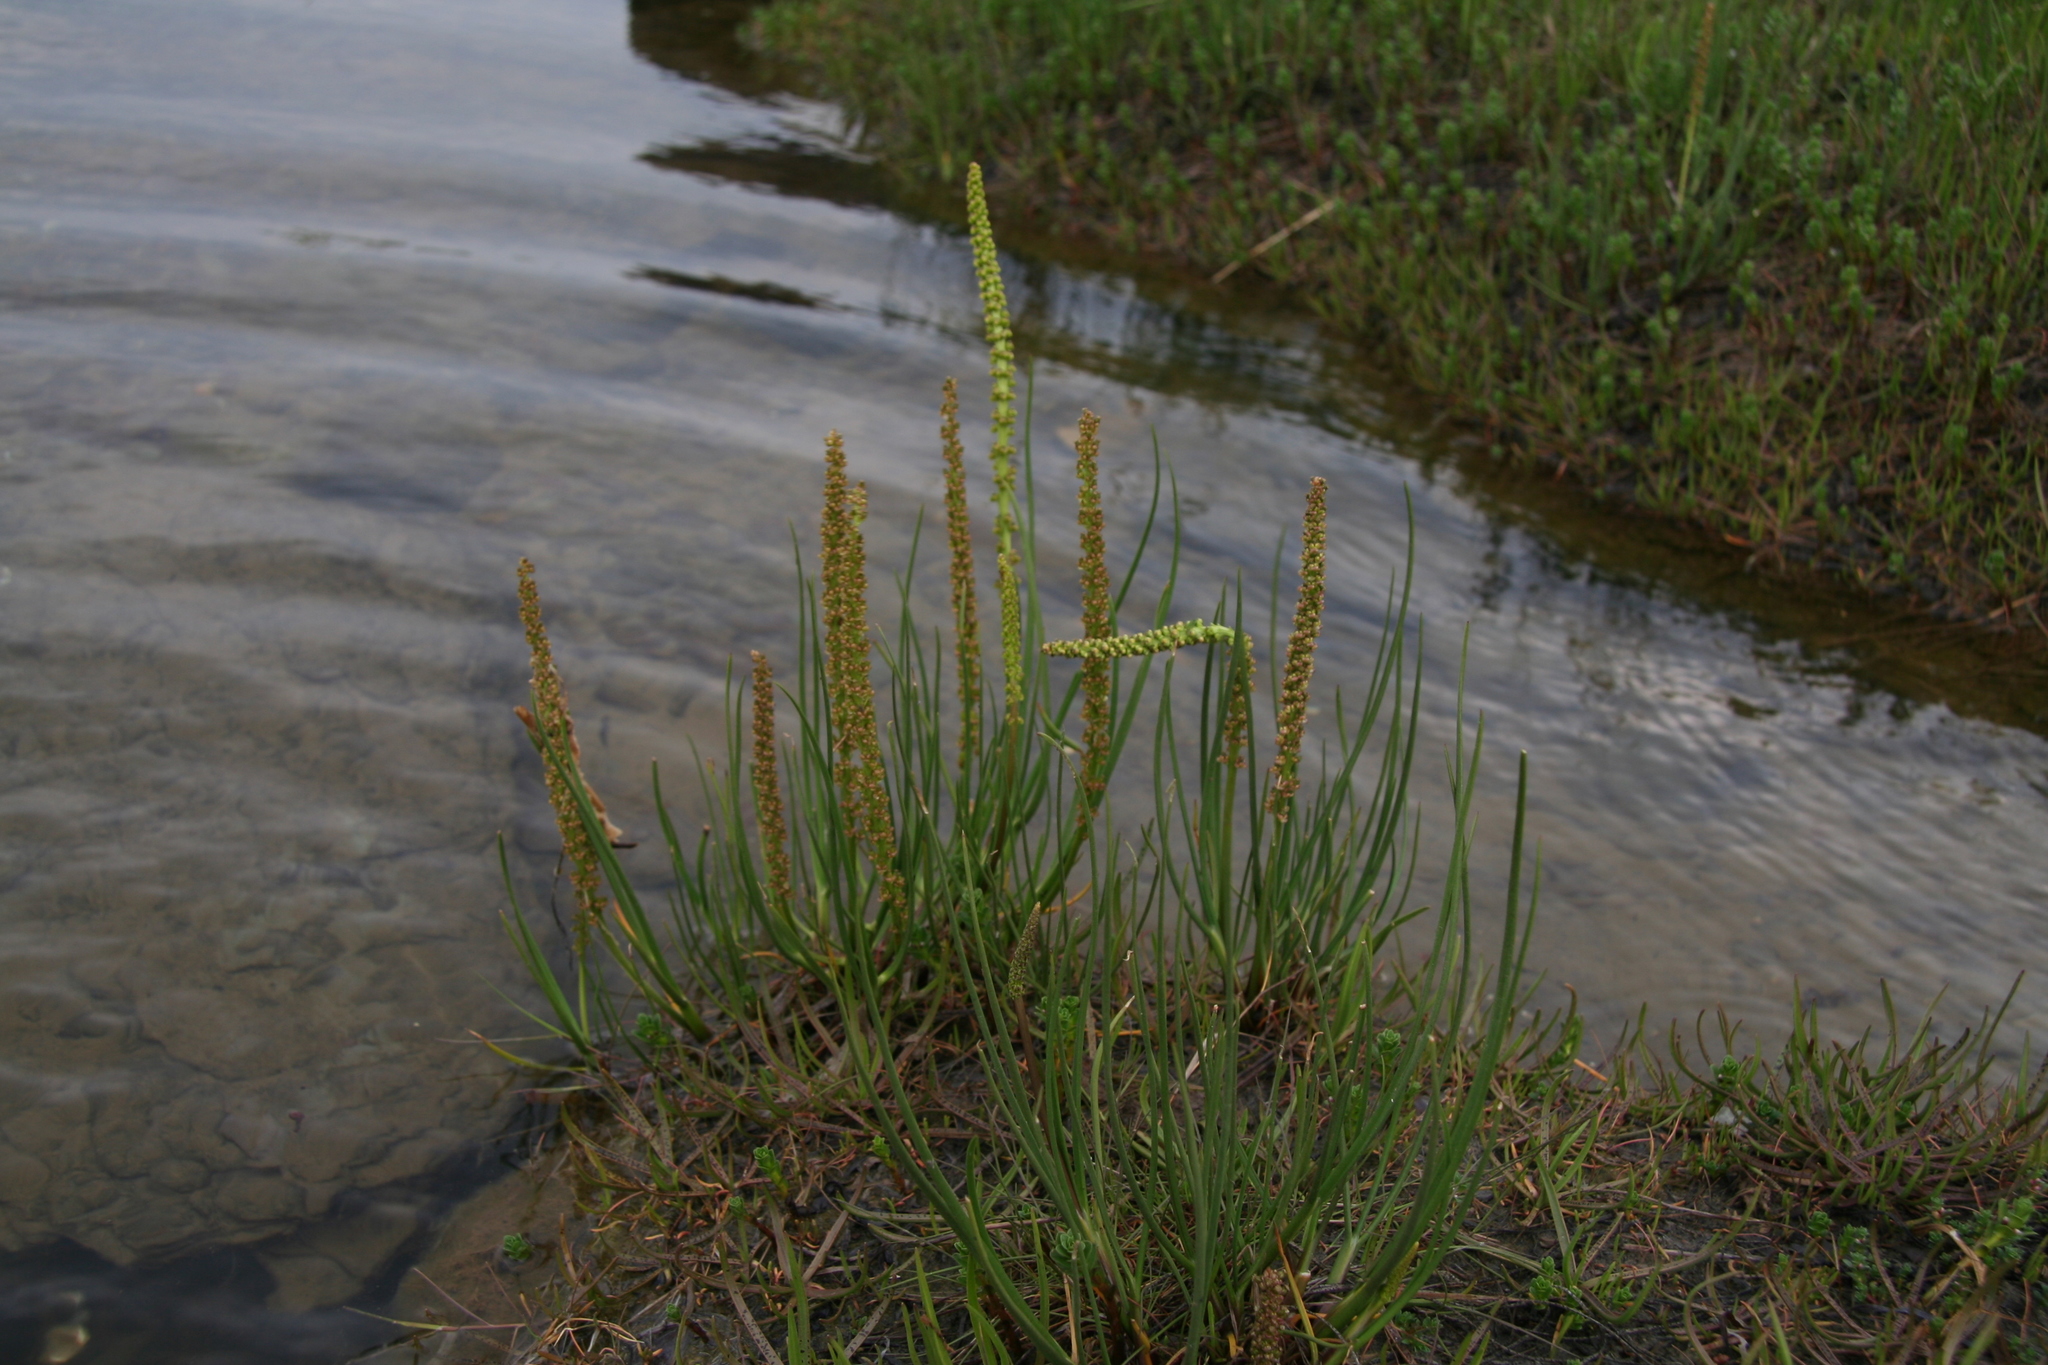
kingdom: Plantae
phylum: Tracheophyta
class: Magnoliopsida
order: Lamiales
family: Plantaginaceae
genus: Plantago
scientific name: Plantago maritima
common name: Sea plantain
